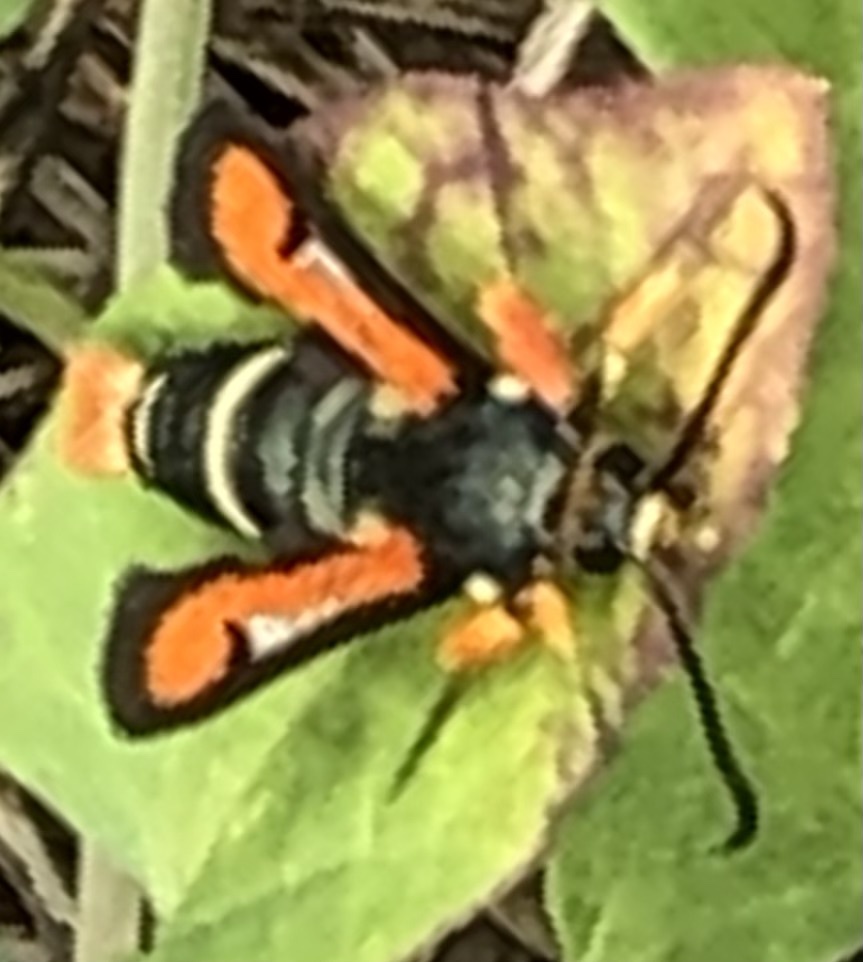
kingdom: Animalia
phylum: Arthropoda
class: Insecta
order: Lepidoptera
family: Sesiidae
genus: Pyropteron
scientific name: Pyropteron chrysidiforme
